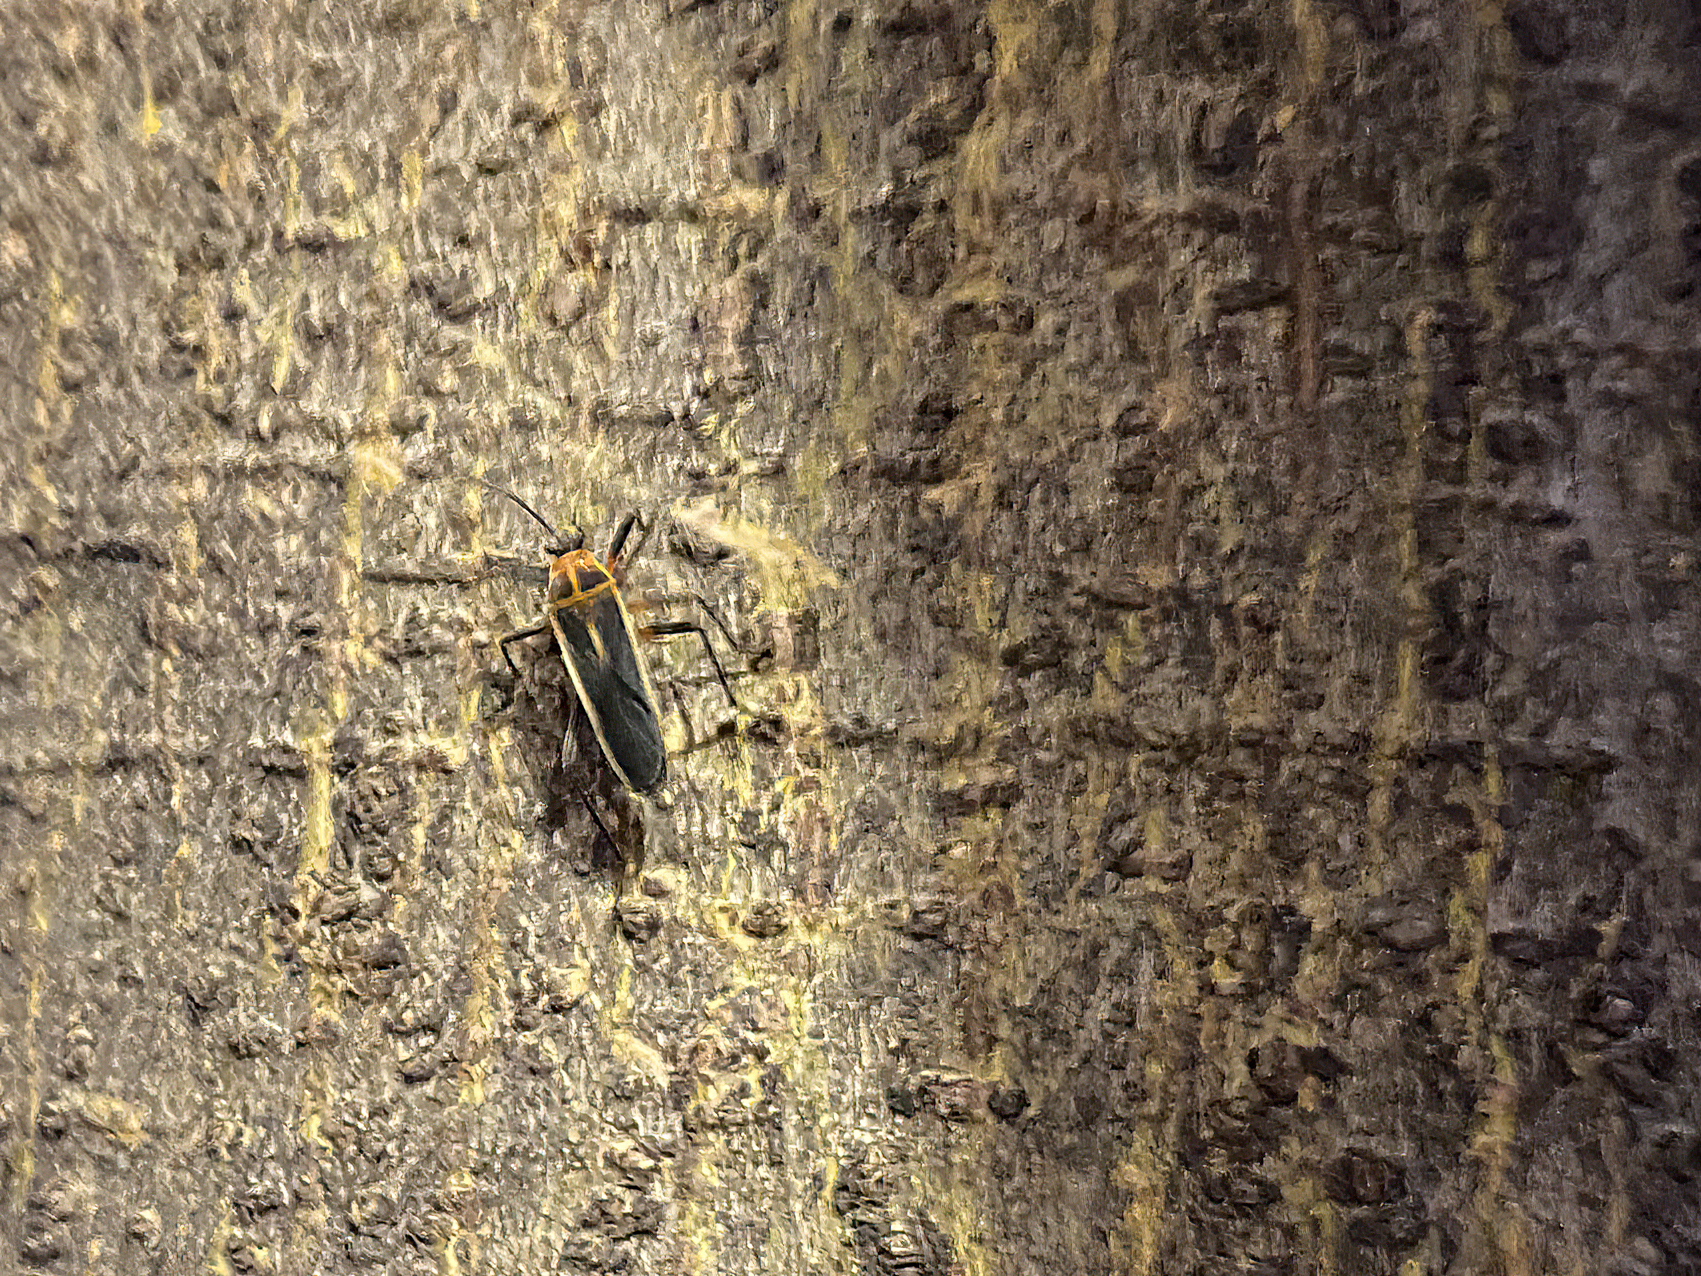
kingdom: Animalia
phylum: Arthropoda
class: Insecta
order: Hemiptera
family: Largidae
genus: Stenomacra
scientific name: Stenomacra marginella
